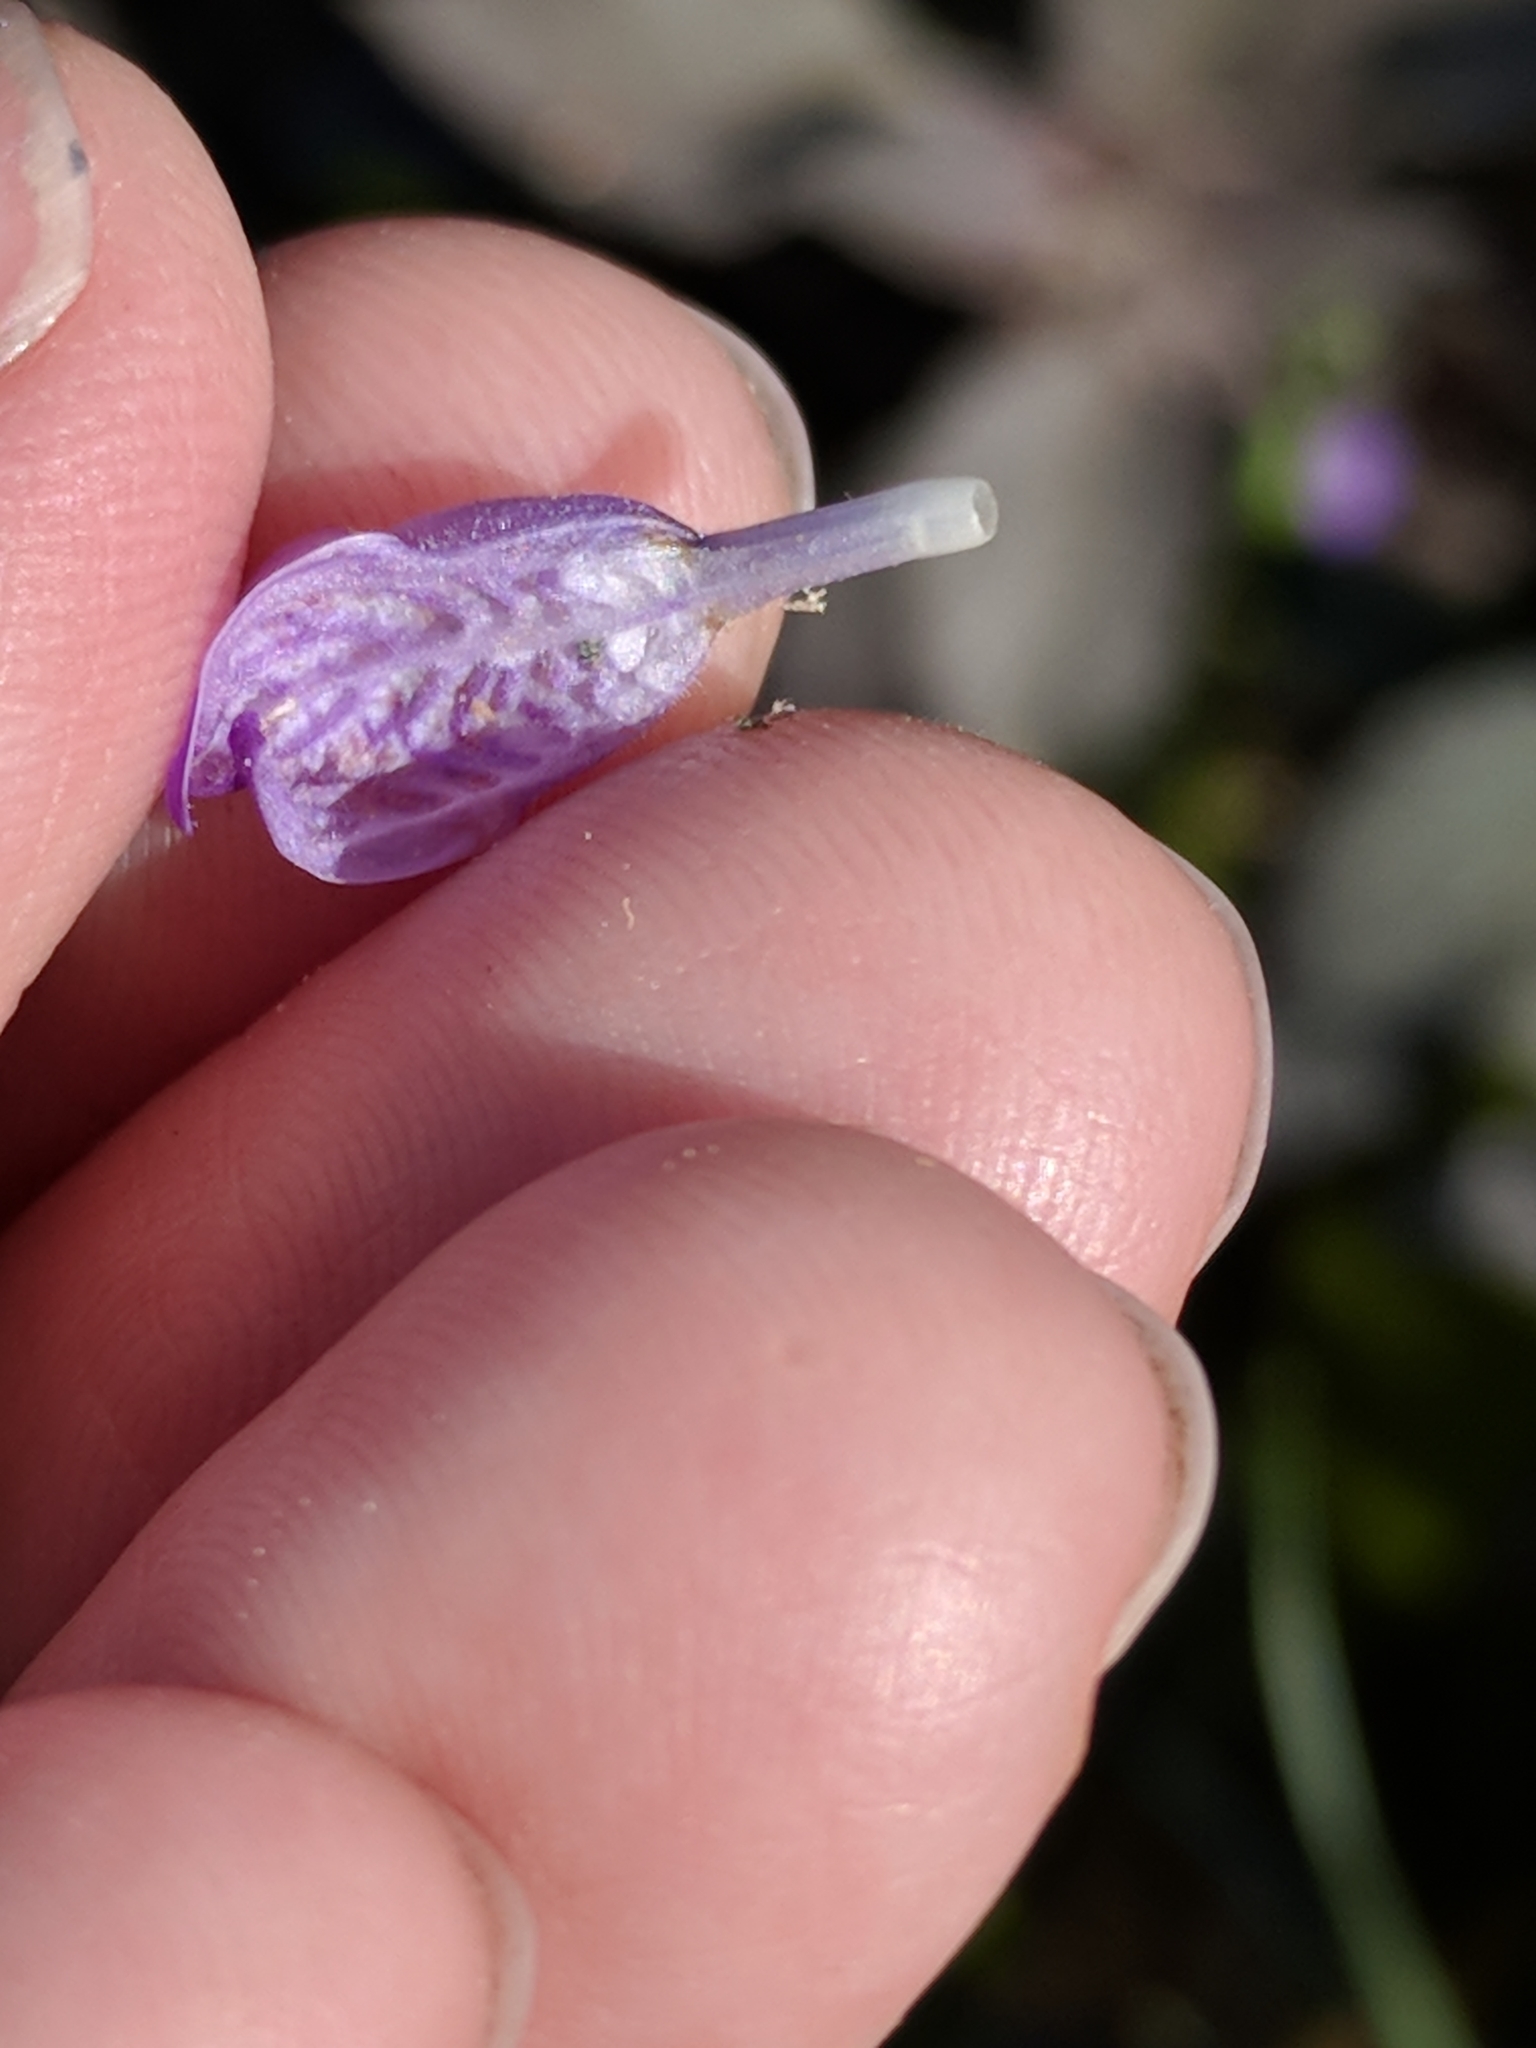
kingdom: Plantae
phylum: Tracheophyta
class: Magnoliopsida
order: Lamiales
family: Acanthaceae
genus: Hygrophila
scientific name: Hygrophila corymbosa
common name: Starhorn
